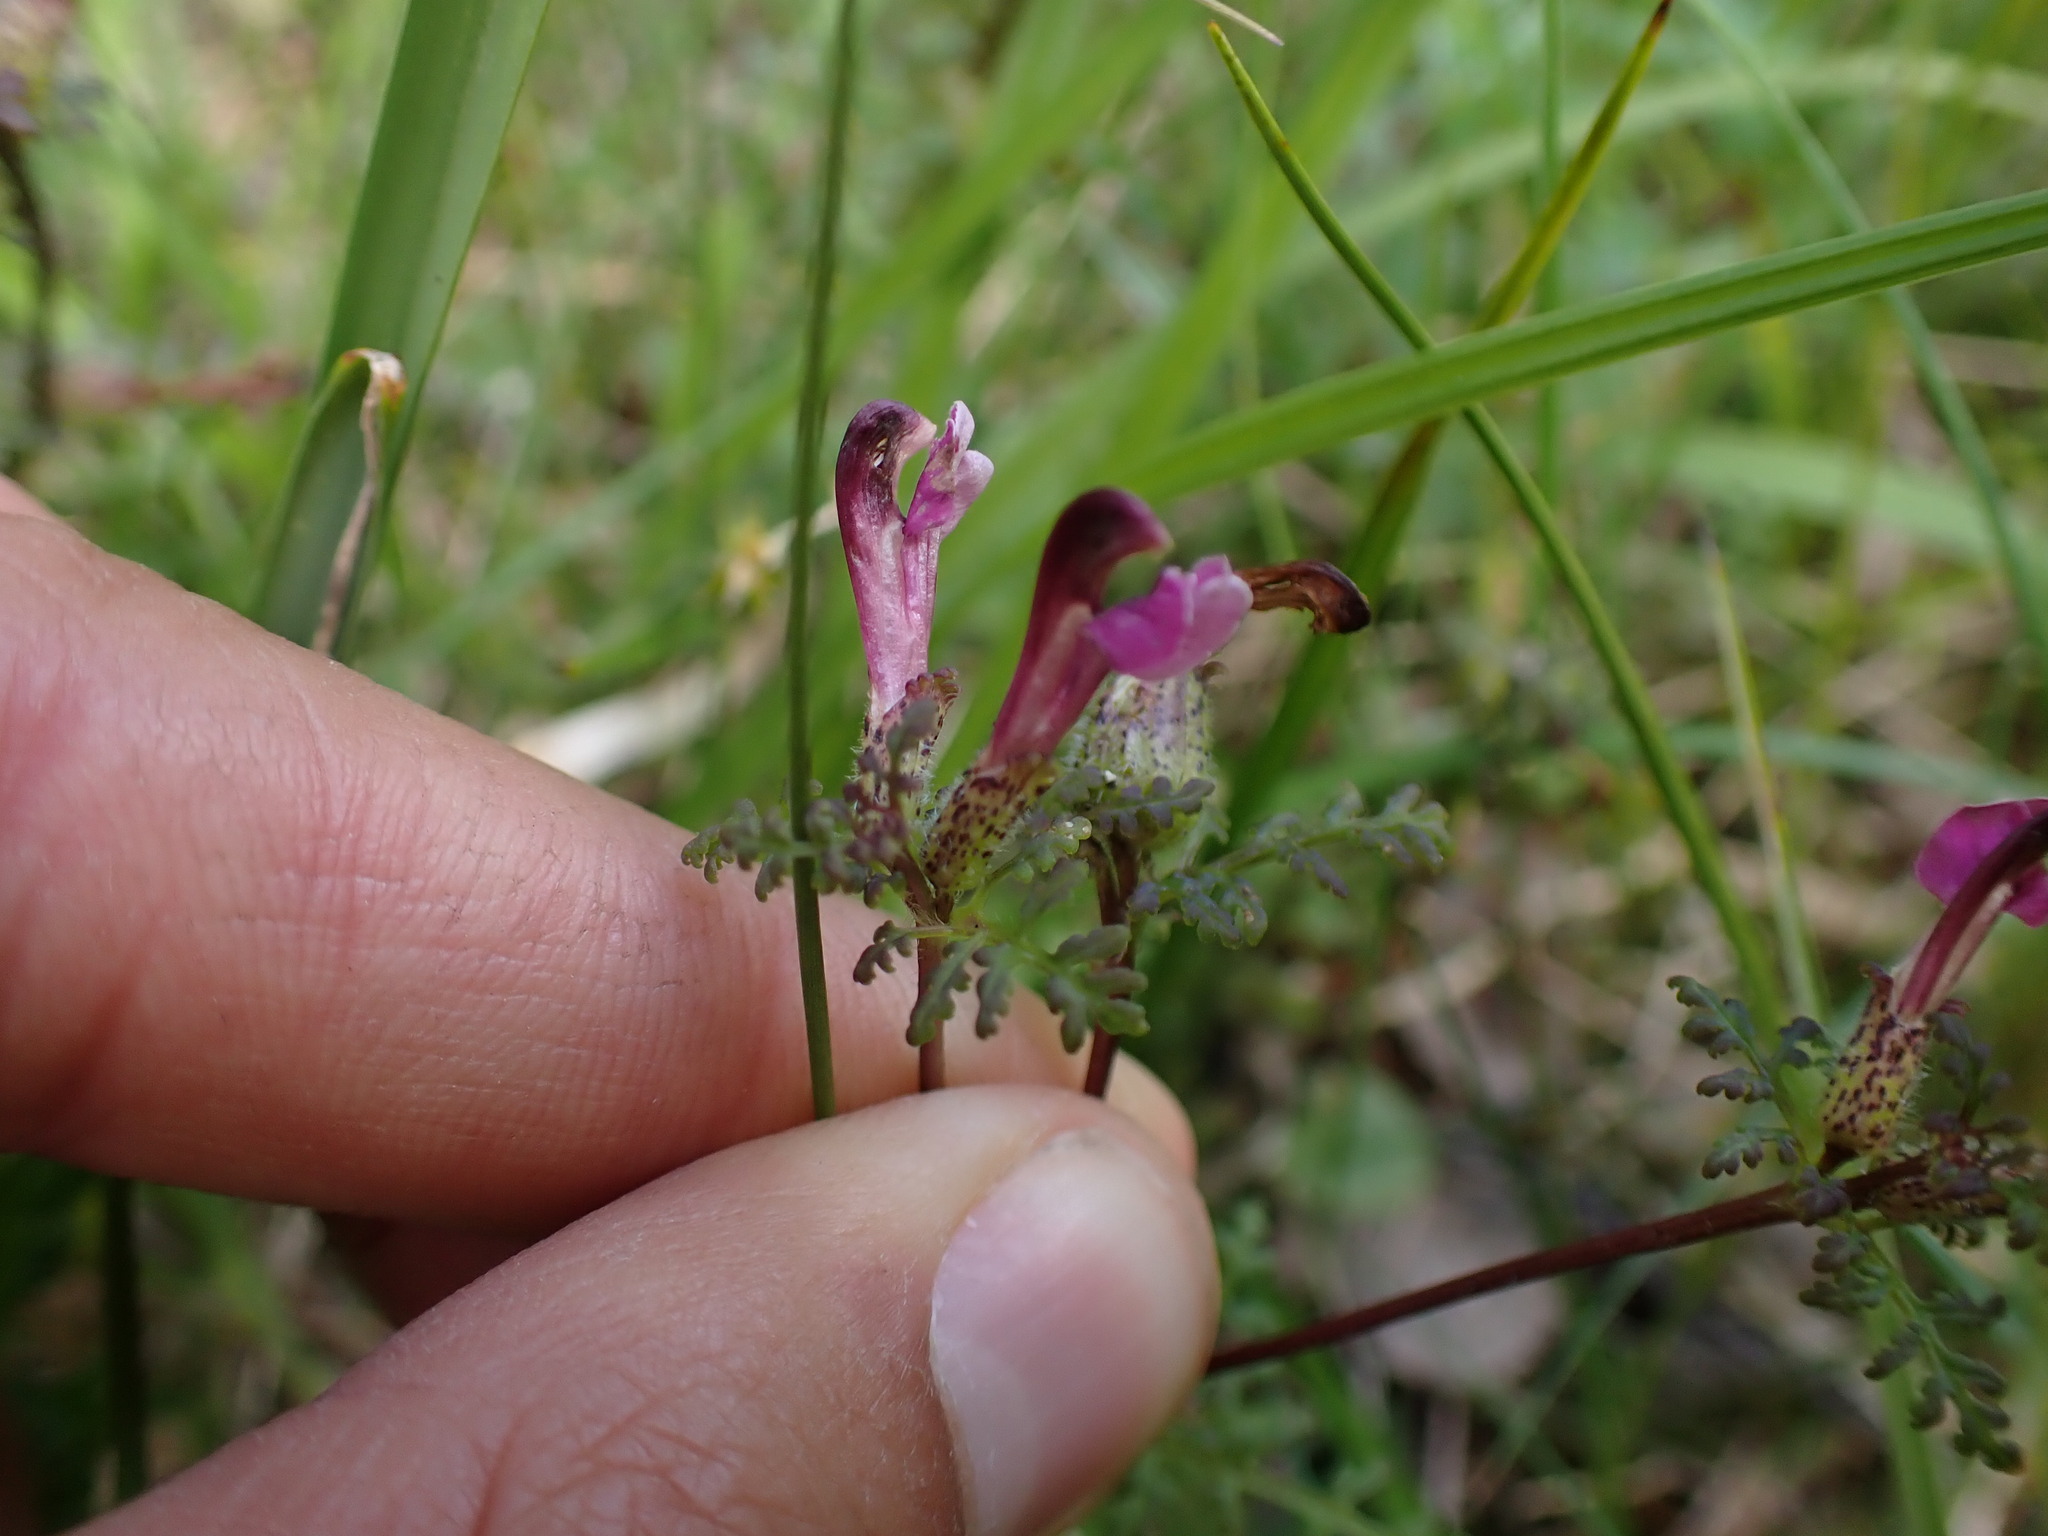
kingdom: Plantae
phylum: Tracheophyta
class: Magnoliopsida
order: Lamiales
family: Orobanchaceae
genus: Pedicularis
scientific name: Pedicularis palustris
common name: Marsh lousewort
